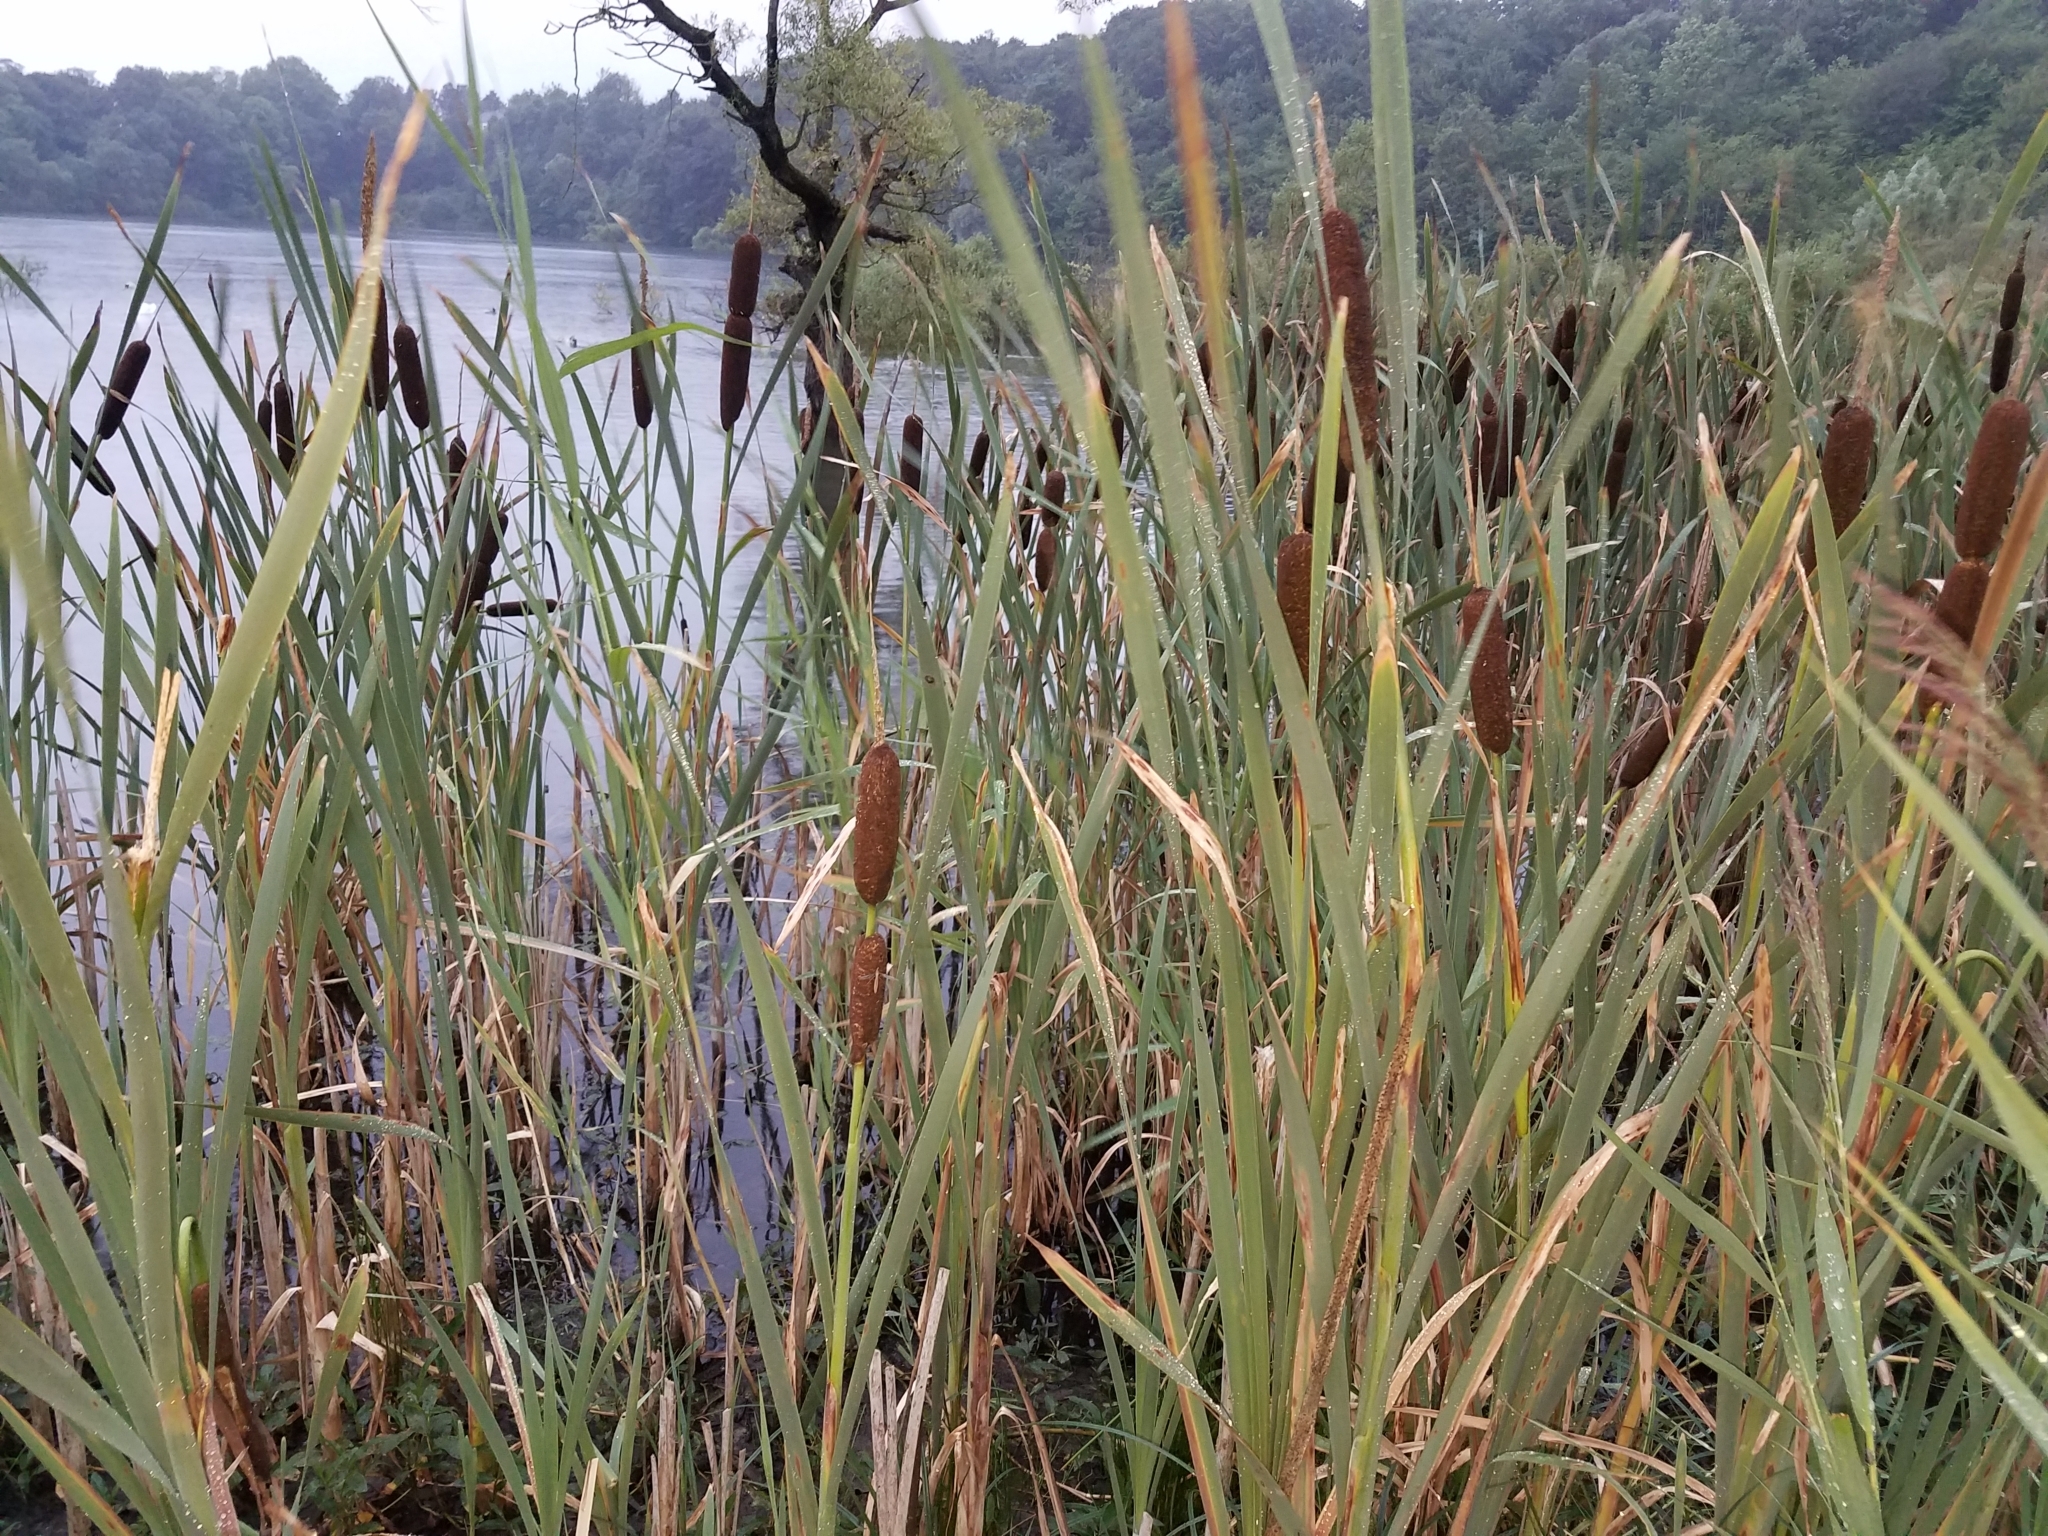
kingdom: Plantae
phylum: Tracheophyta
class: Liliopsida
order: Poales
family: Typhaceae
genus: Typha
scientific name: Typha latifolia
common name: Broadleaf cattail
